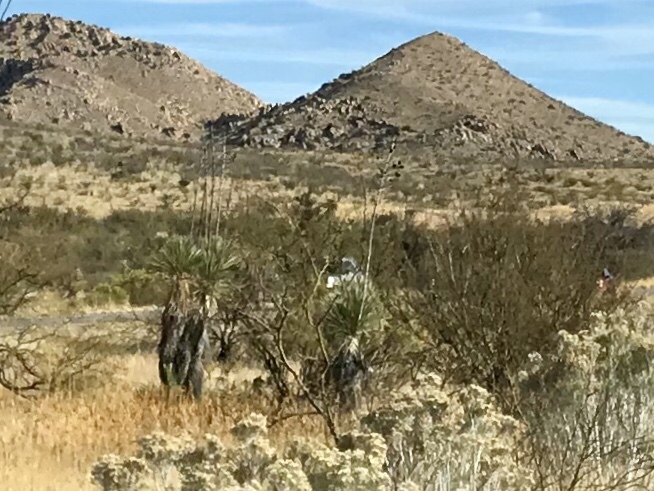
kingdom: Plantae
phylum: Tracheophyta
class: Liliopsida
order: Asparagales
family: Asparagaceae
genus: Yucca
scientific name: Yucca elata
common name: Palmella
